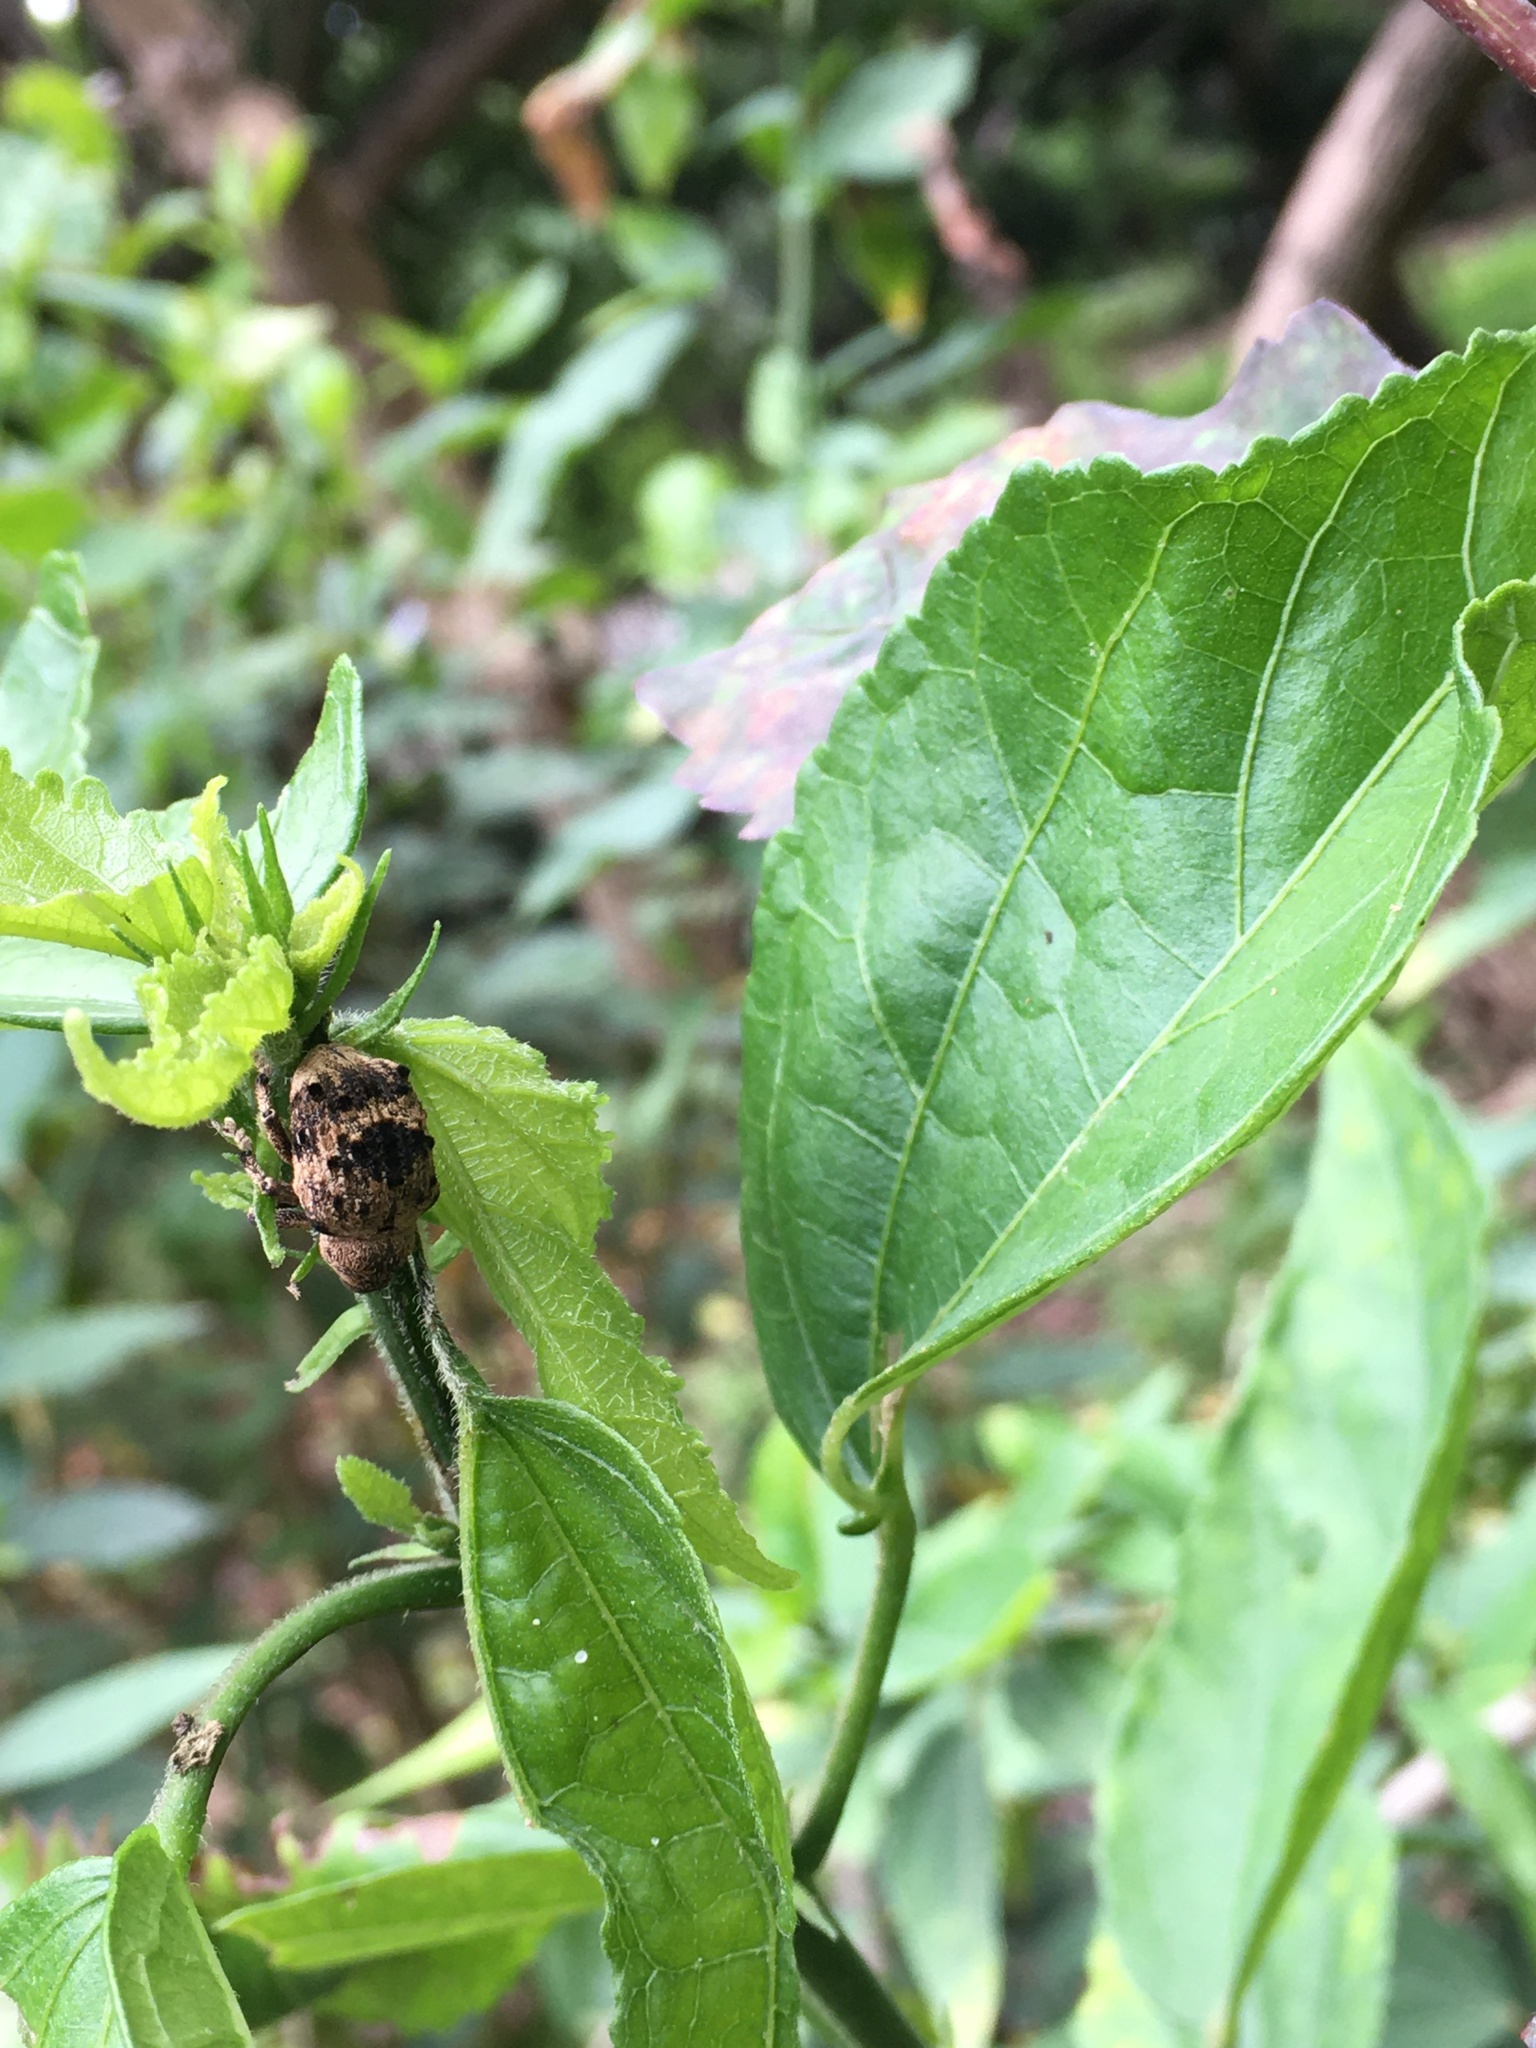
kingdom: Animalia
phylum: Arthropoda
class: Insecta
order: Coleoptera
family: Brachyceridae
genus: Desmidophorus
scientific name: Desmidophorus crassus
